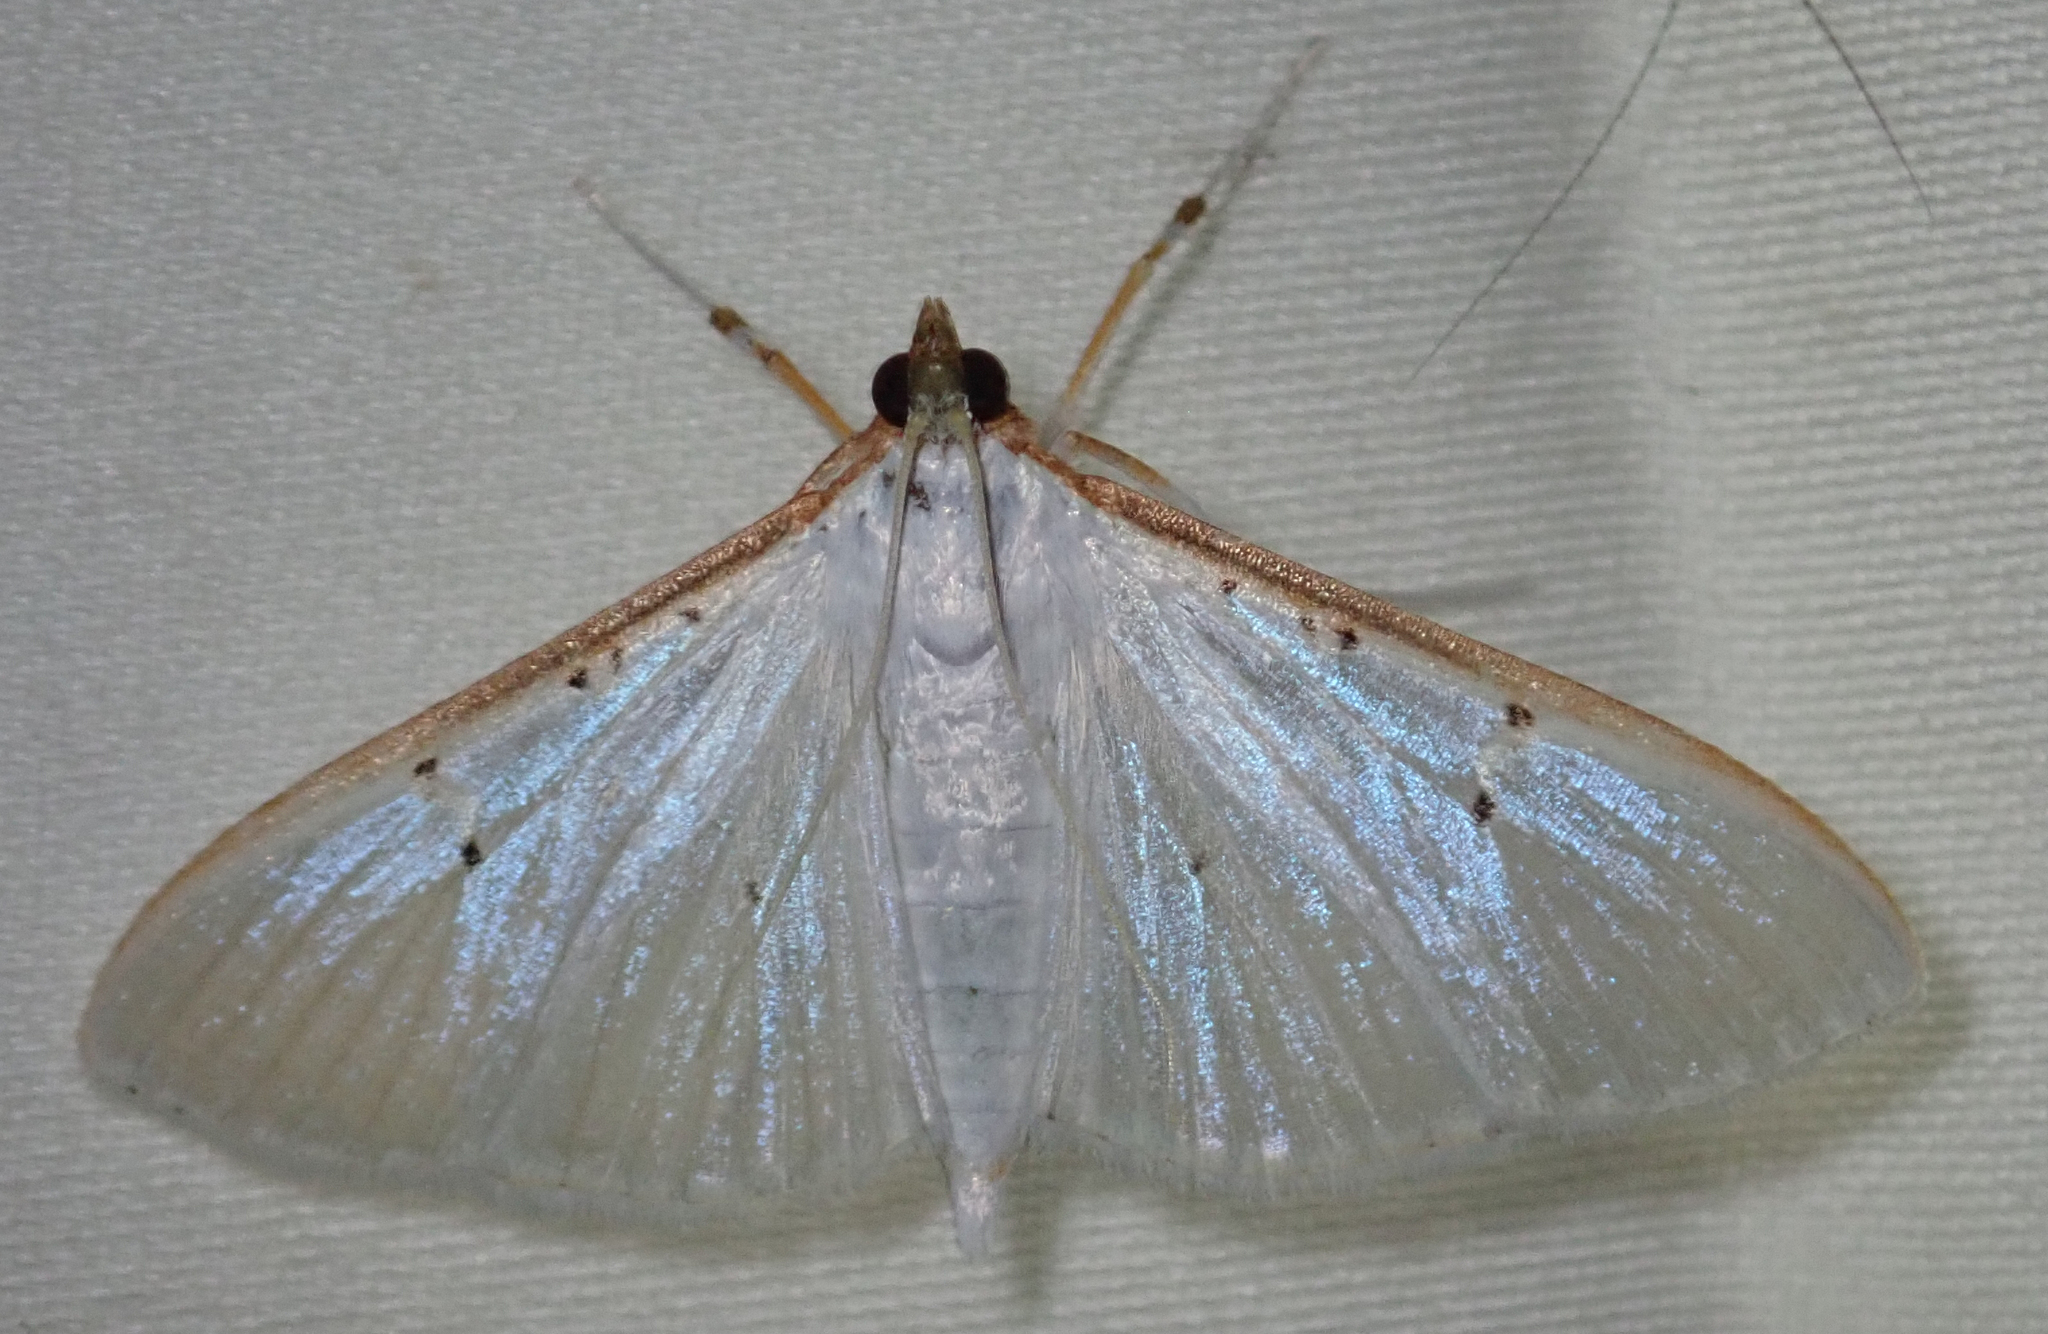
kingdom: Animalia
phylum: Arthropoda
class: Insecta
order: Lepidoptera
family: Crambidae
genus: Palpita
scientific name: Palpita vitrealis
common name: Olive-tree pearl
